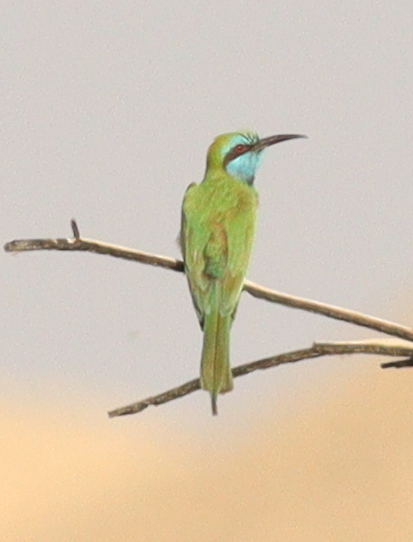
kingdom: Animalia
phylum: Chordata
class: Aves
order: Coraciiformes
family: Meropidae
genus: Merops
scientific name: Merops cyanophrys
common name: Arabian green bee-eater
